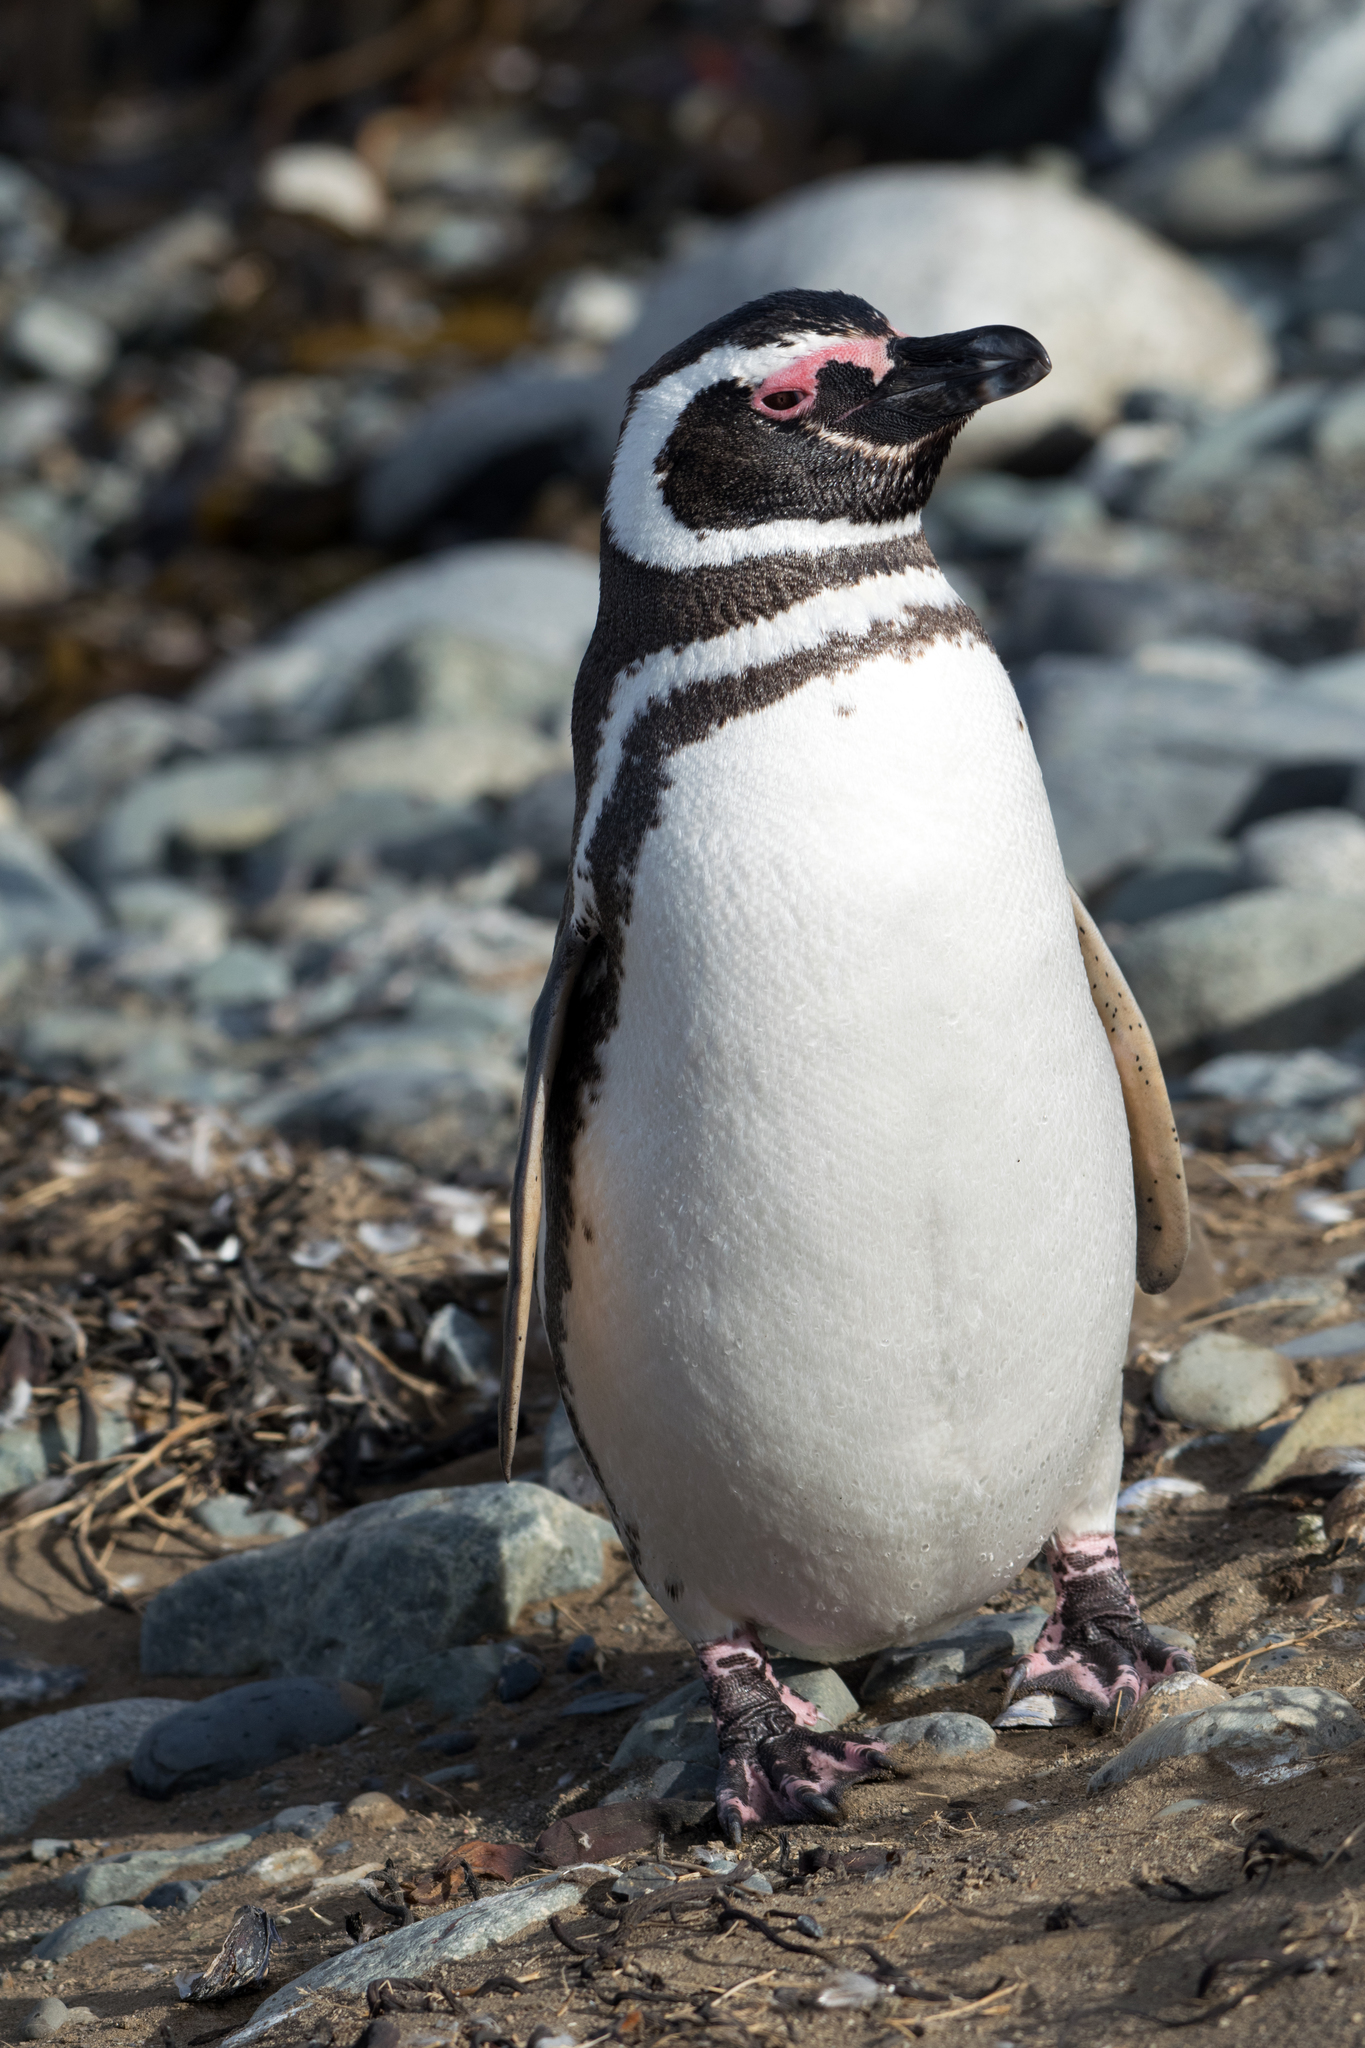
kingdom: Animalia
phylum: Chordata
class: Aves
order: Sphenisciformes
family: Spheniscidae
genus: Spheniscus
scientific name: Spheniscus magellanicus
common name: Magellanic penguin
